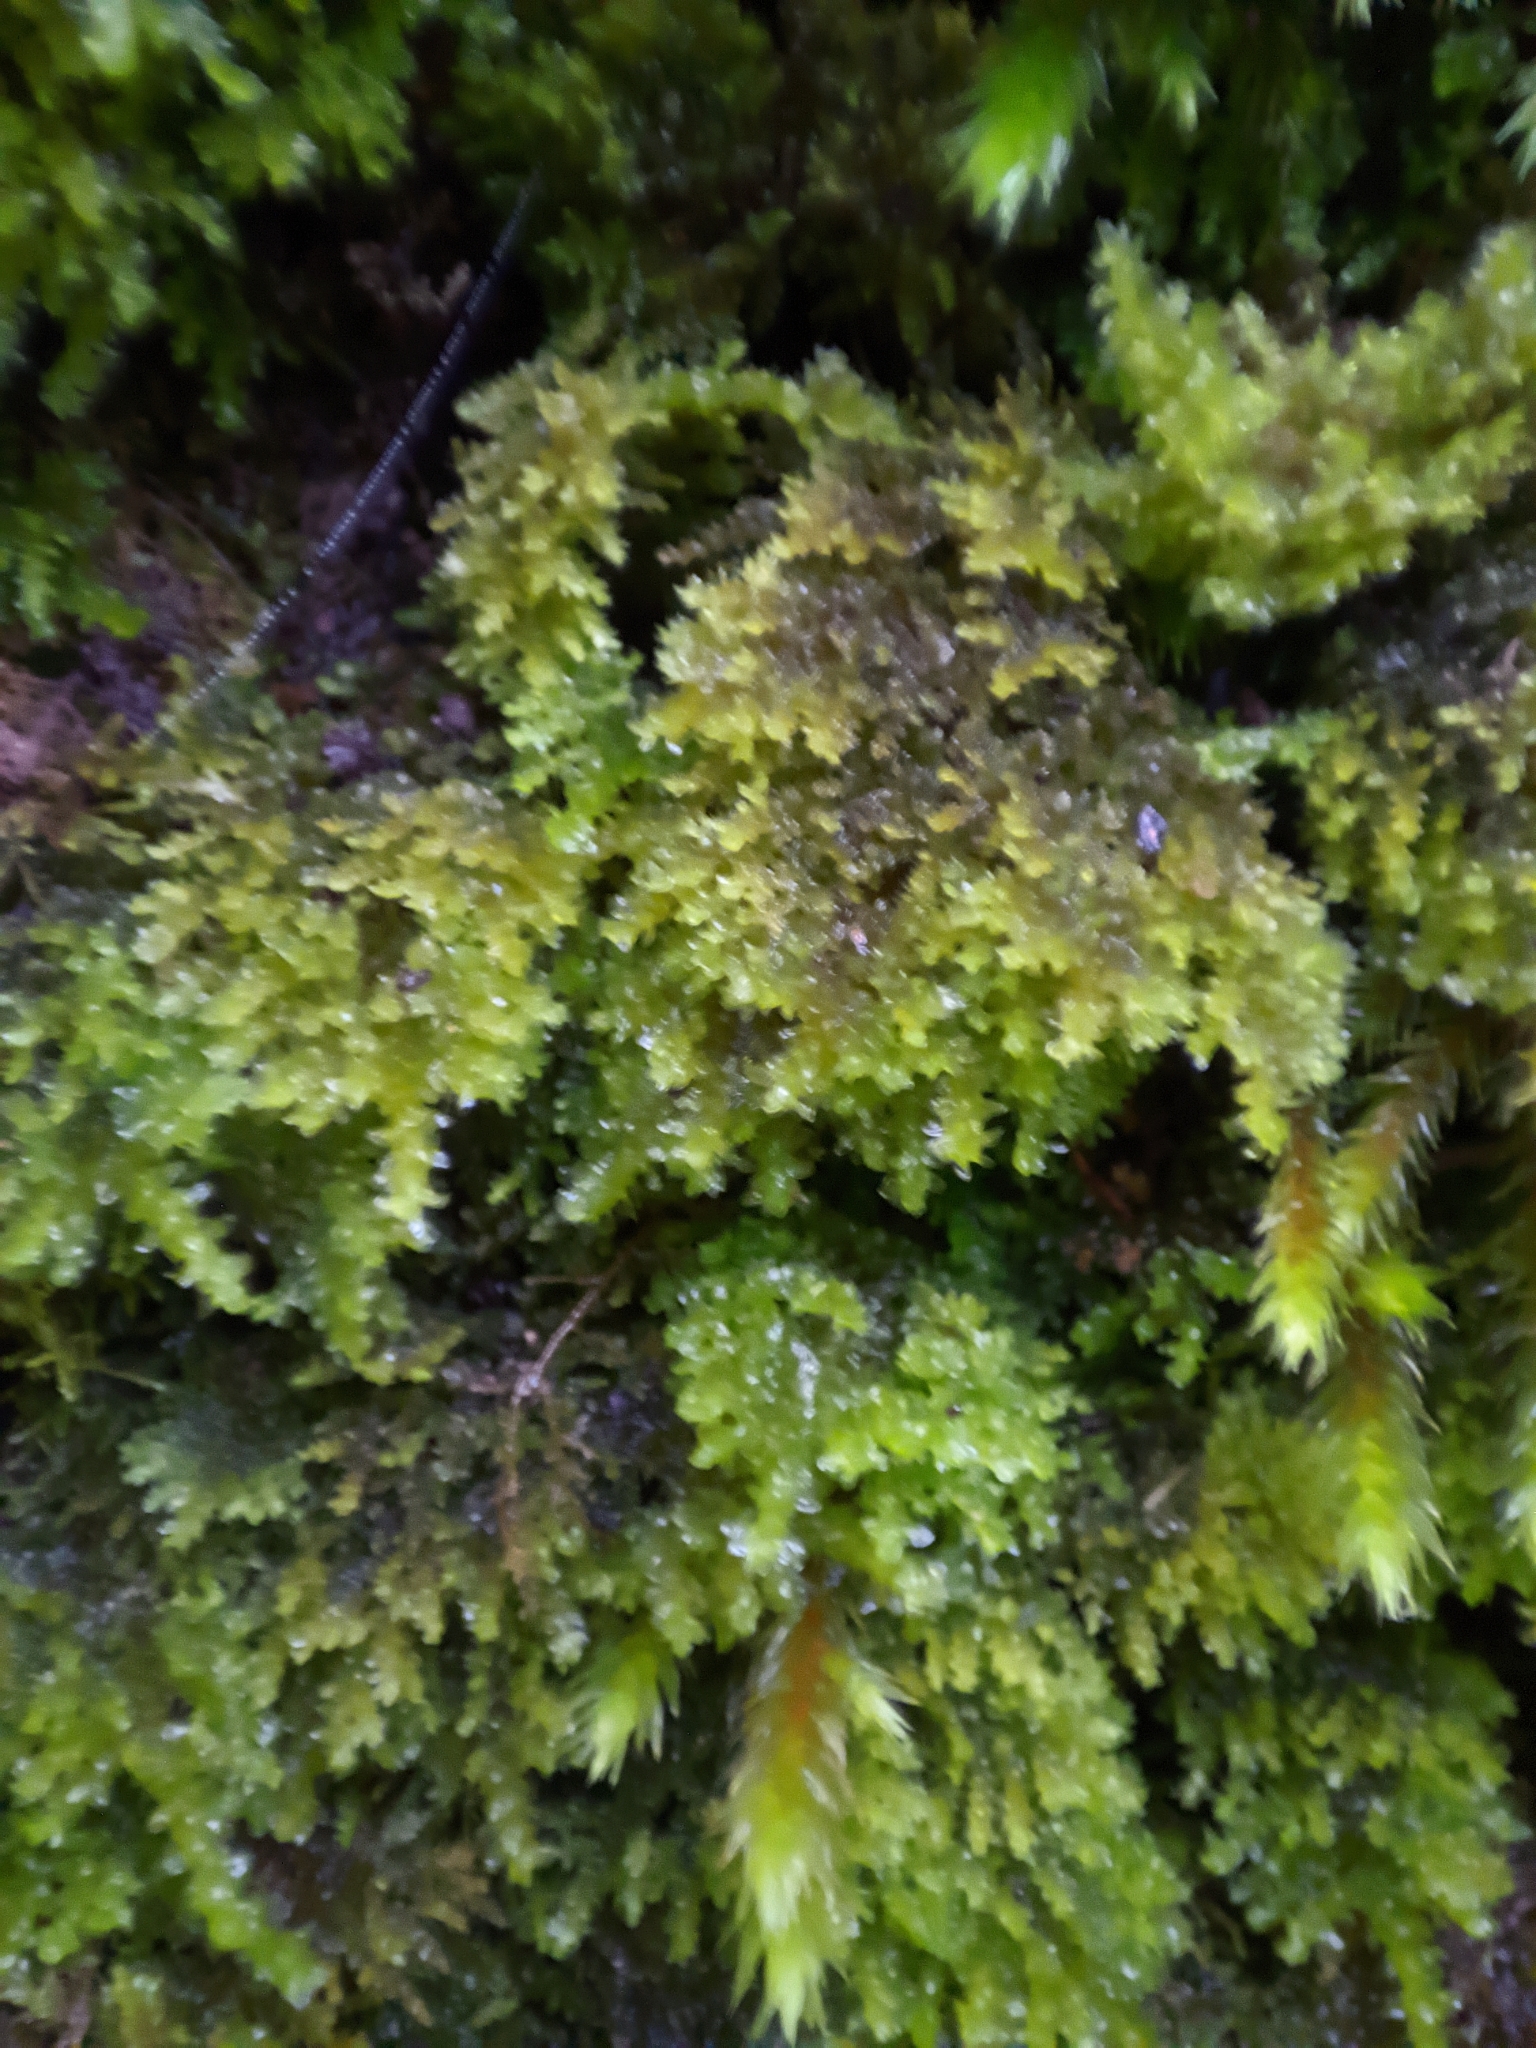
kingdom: Plantae
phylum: Bryophyta
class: Bryopsida
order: Hypnales
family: Neckeraceae
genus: Leptodon
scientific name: Leptodon smithii
